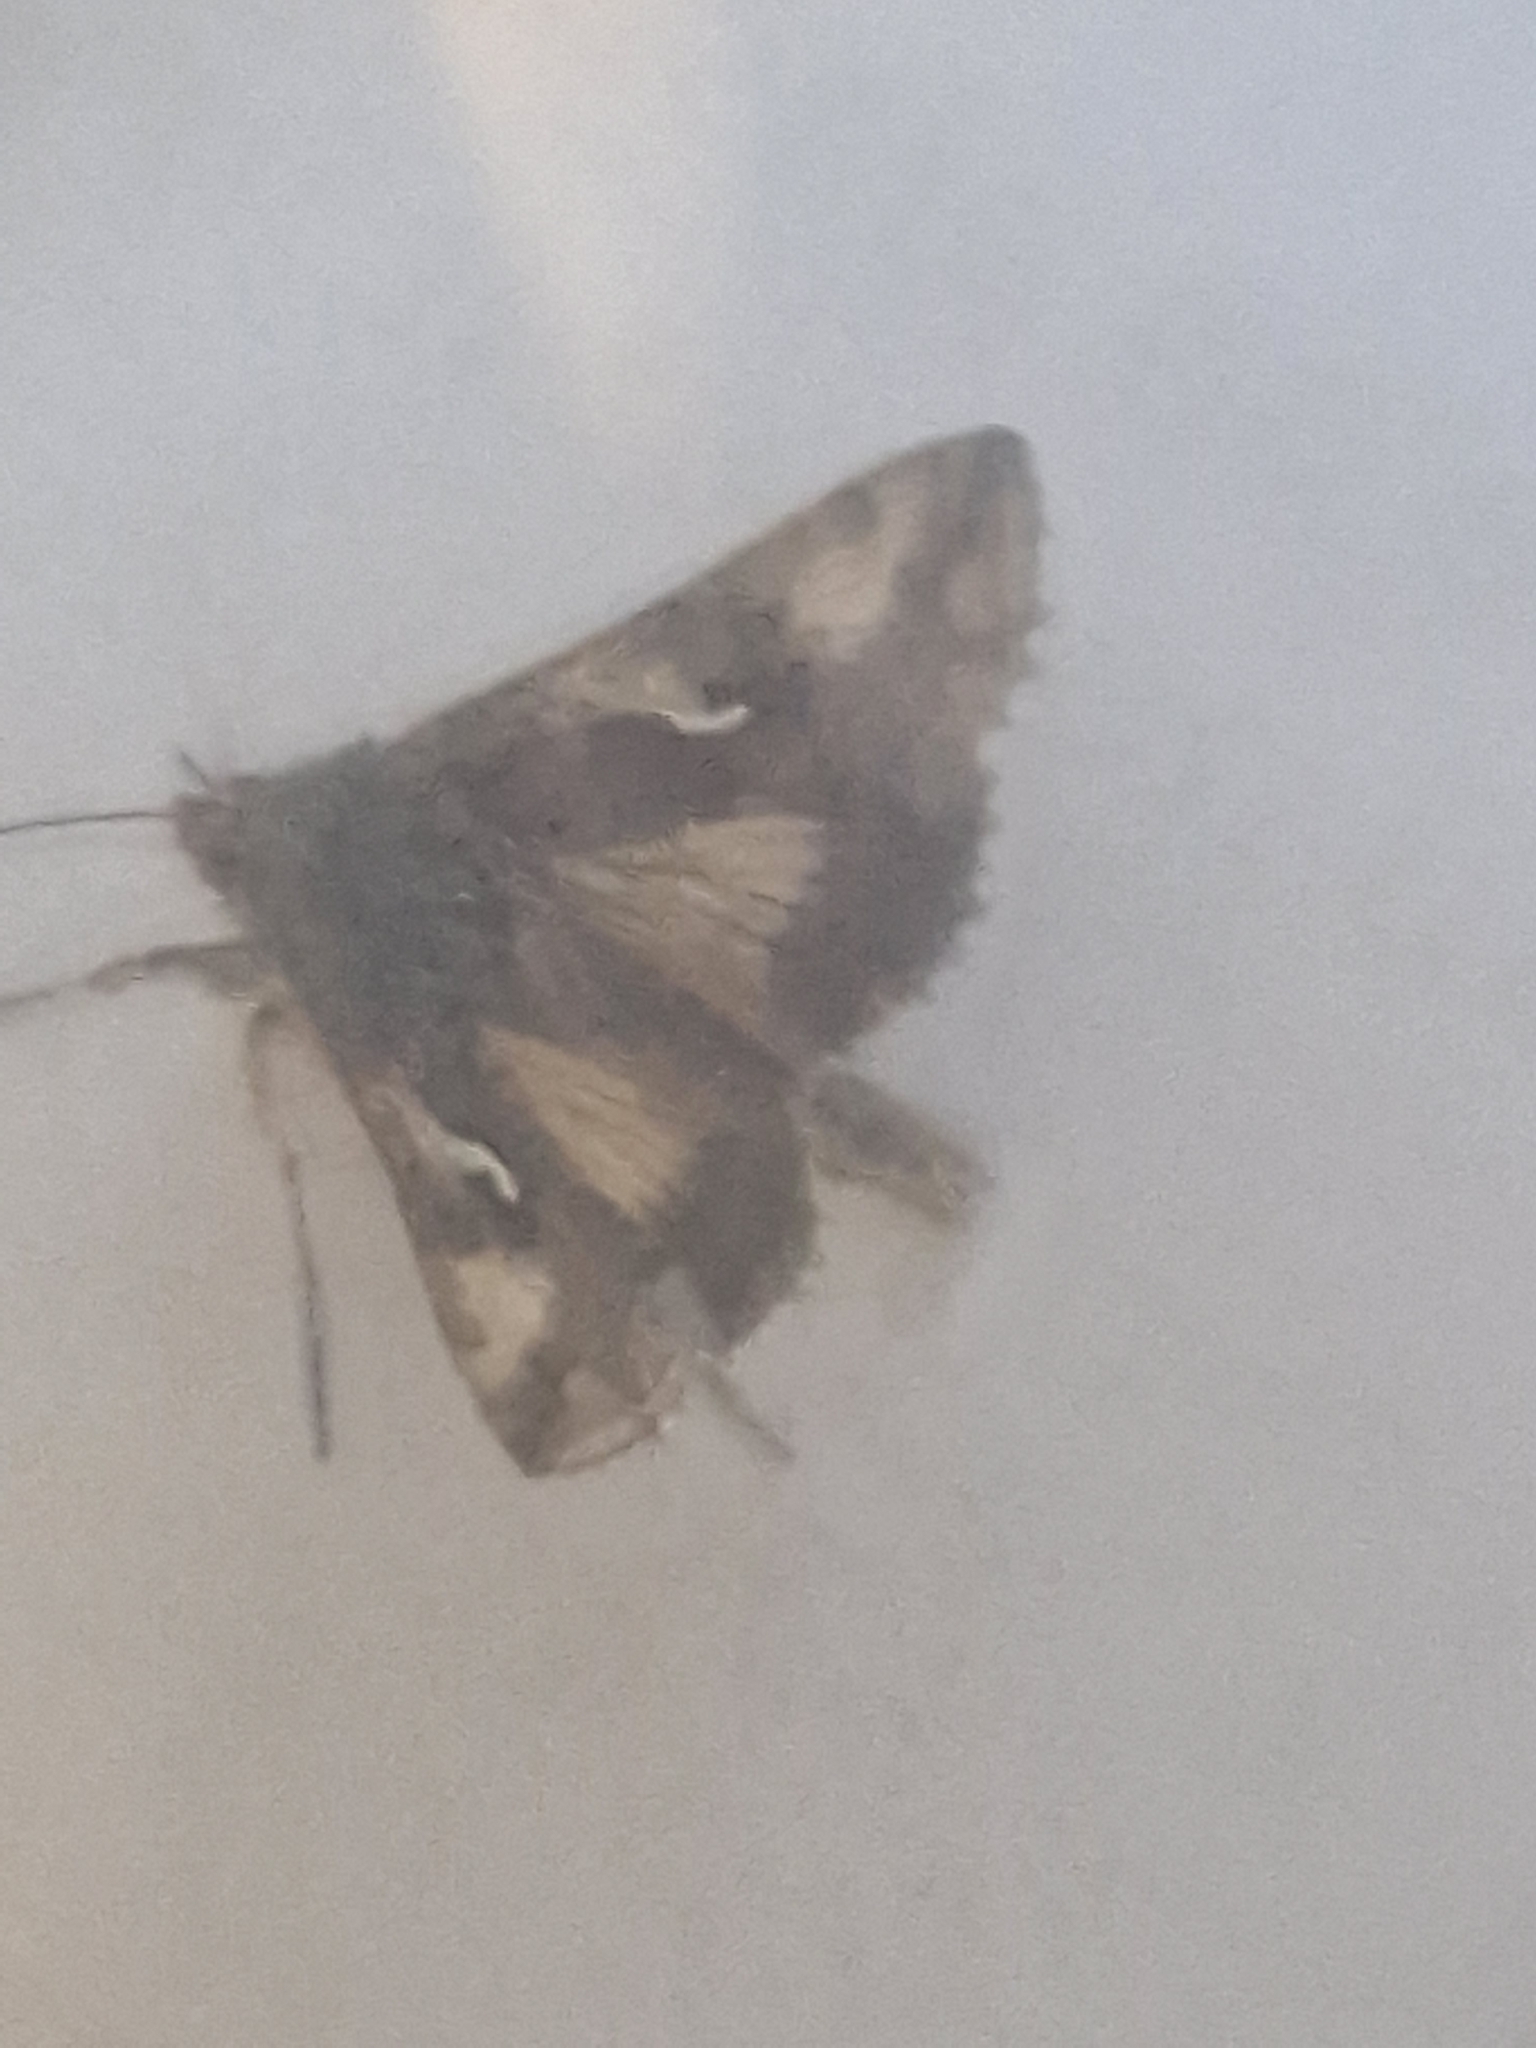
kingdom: Animalia
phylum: Arthropoda
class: Insecta
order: Lepidoptera
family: Noctuidae
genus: Autographa
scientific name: Autographa gamma
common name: Silver y
